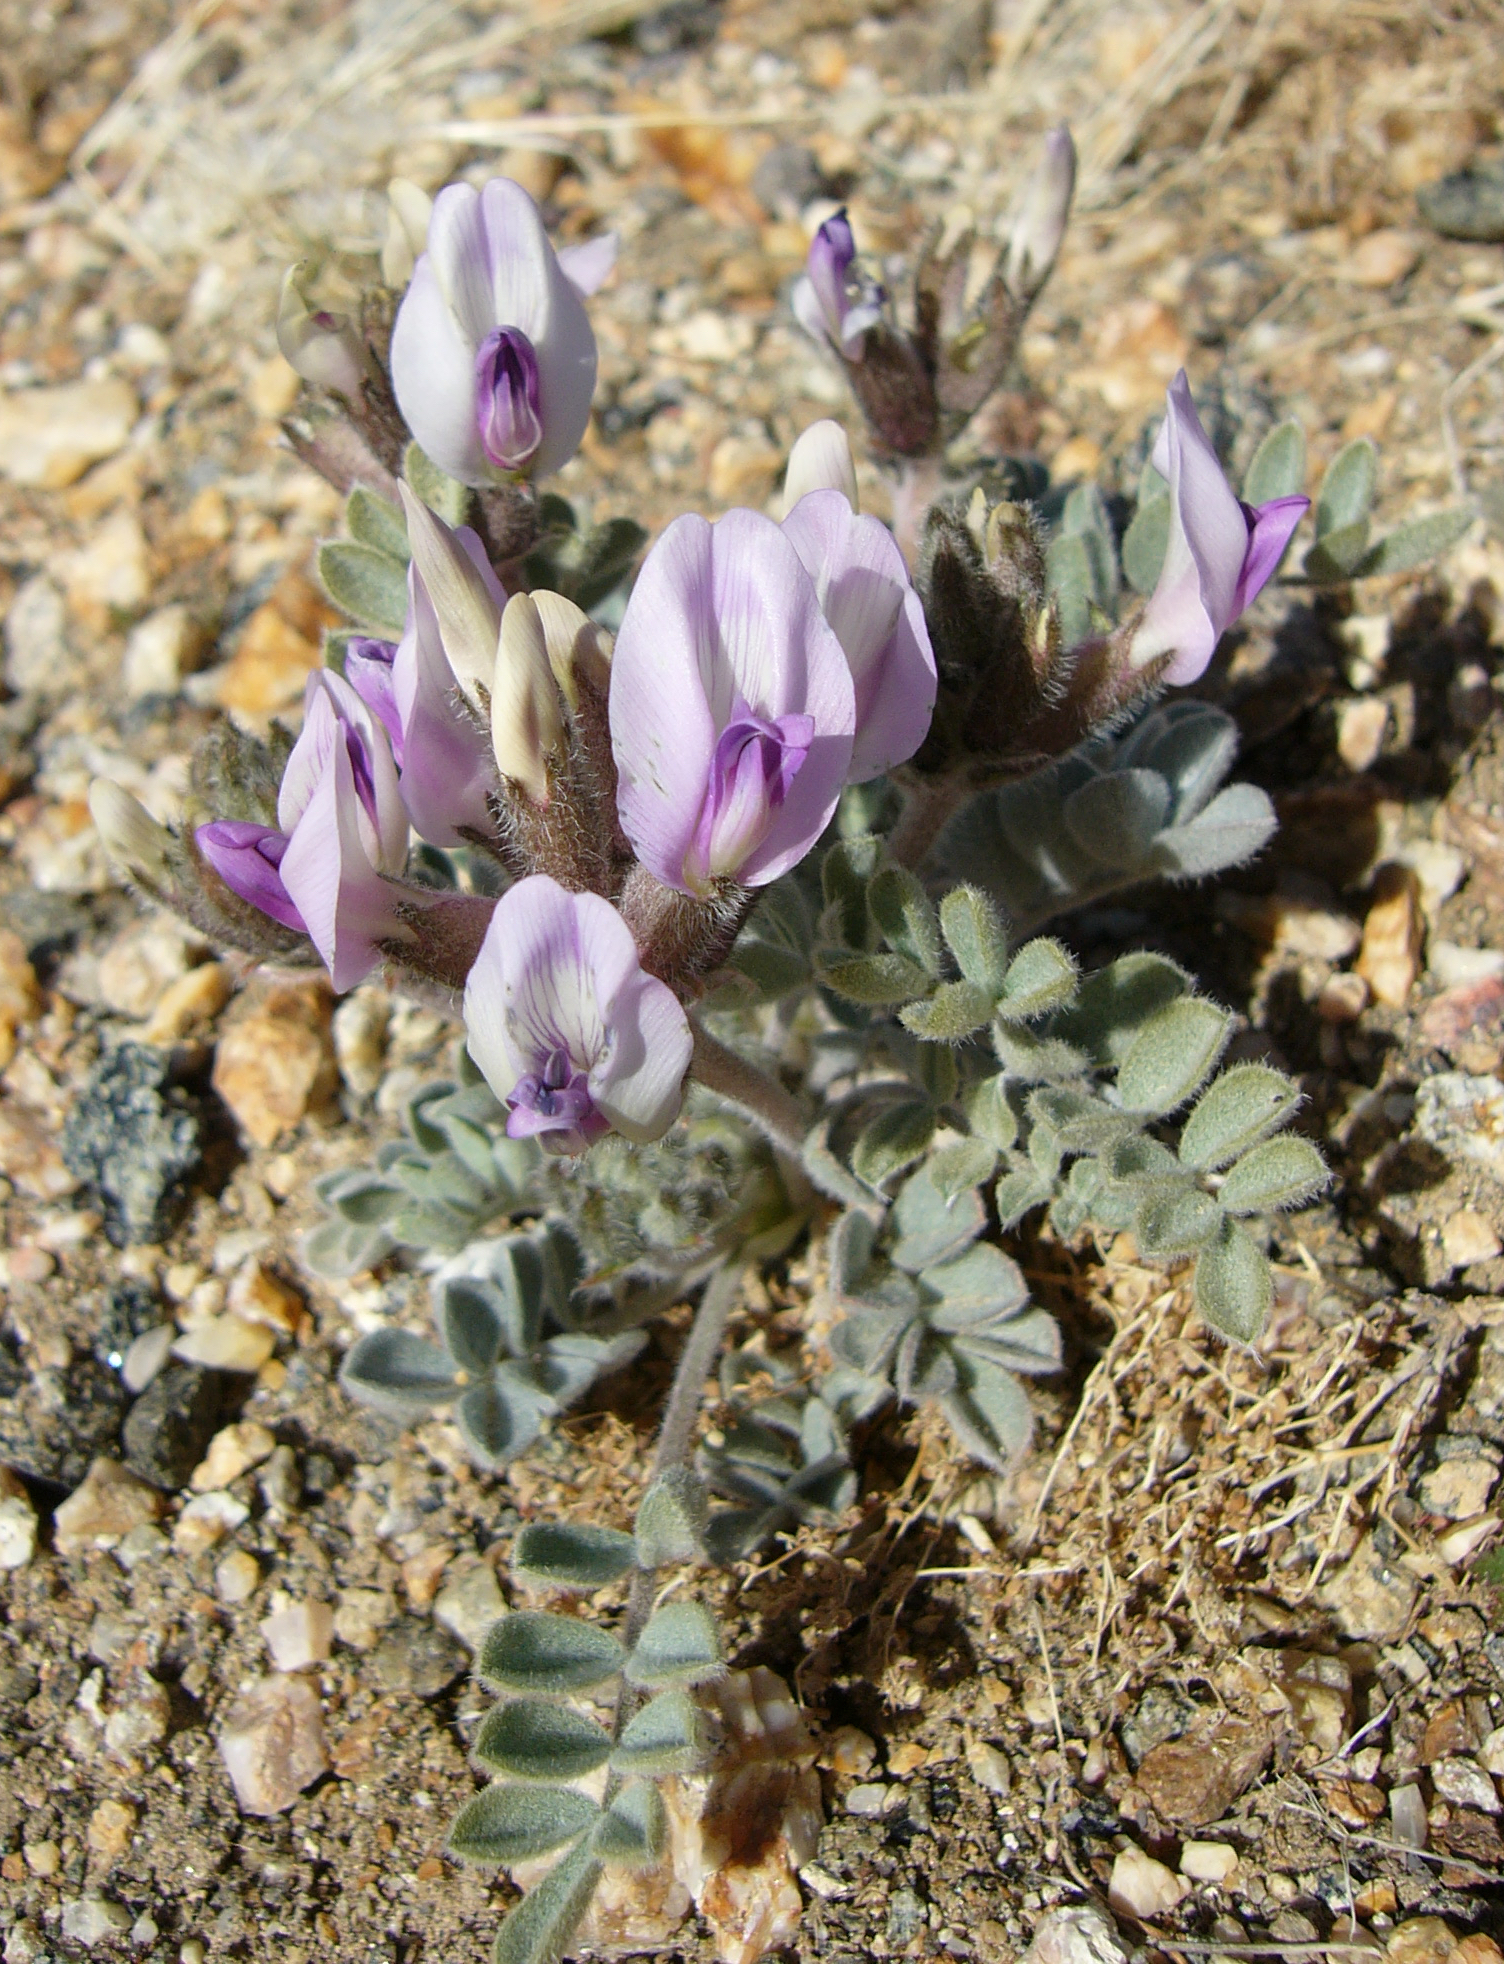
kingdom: Plantae
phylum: Tracheophyta
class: Magnoliopsida
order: Fabales
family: Fabaceae
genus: Astragalus
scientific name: Astragalus newberryi
